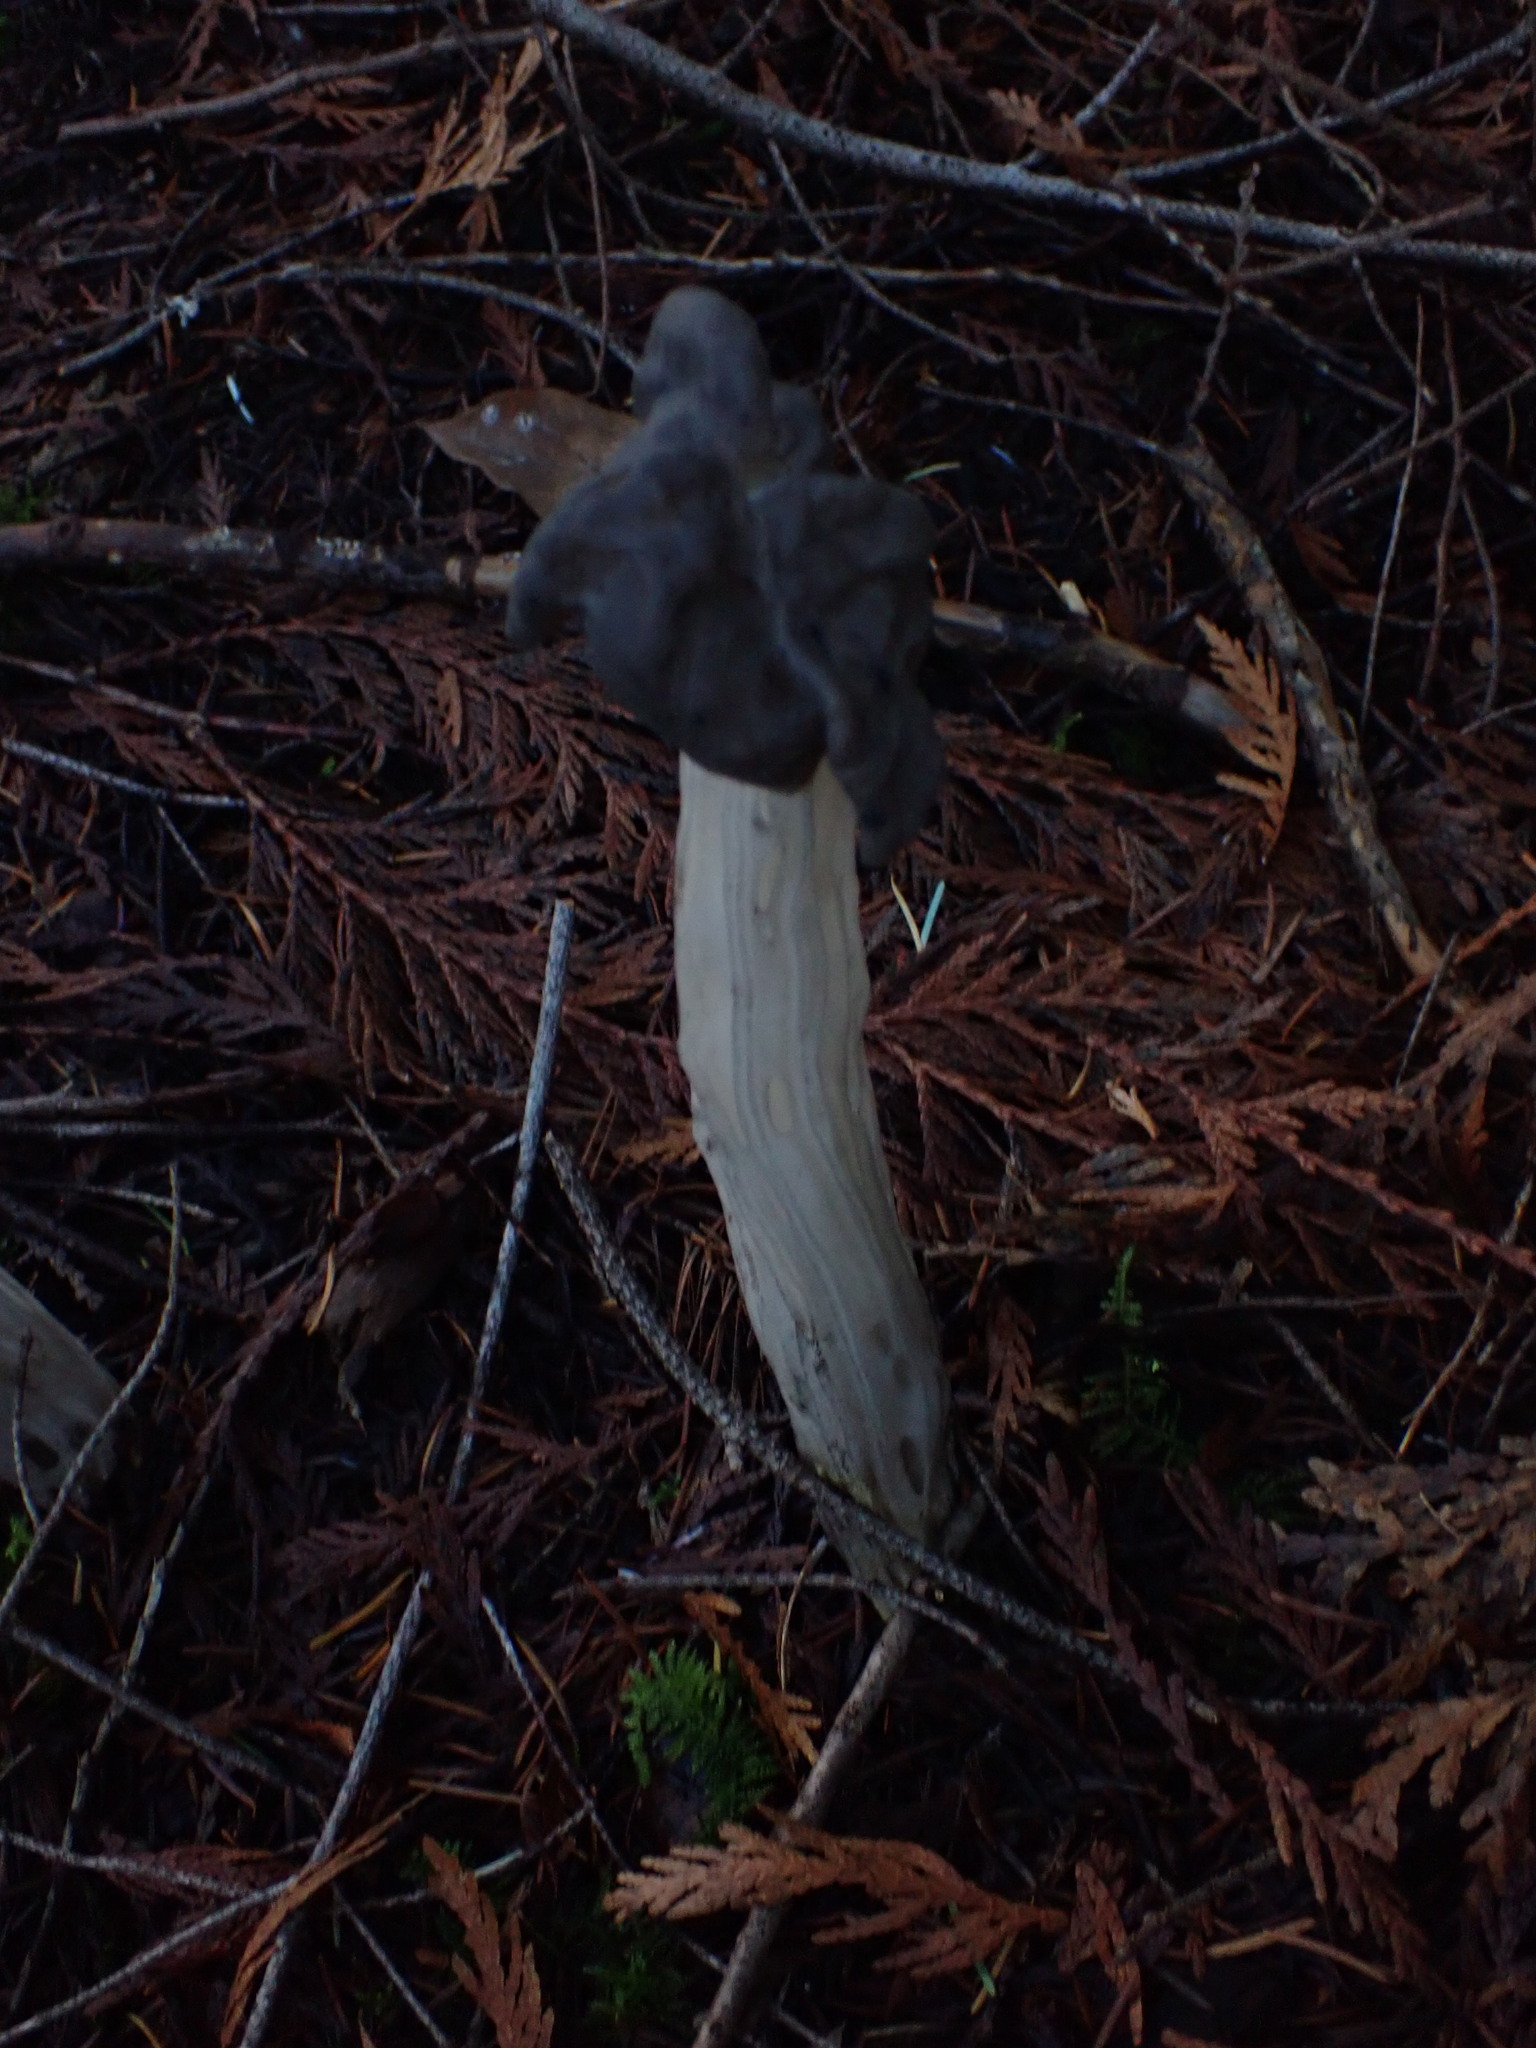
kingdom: Fungi
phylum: Ascomycota
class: Pezizomycetes
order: Pezizales
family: Helvellaceae
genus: Helvella
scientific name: Helvella vespertina
